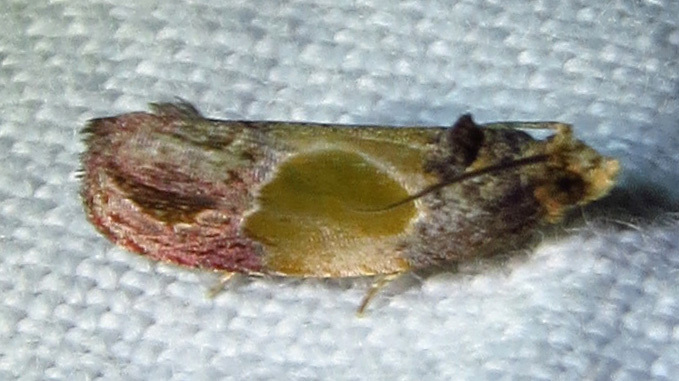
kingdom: Animalia
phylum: Arthropoda
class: Insecta
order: Lepidoptera
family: Tortricidae
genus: Eumarozia
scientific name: Eumarozia malachitana
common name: Sculptured moth
